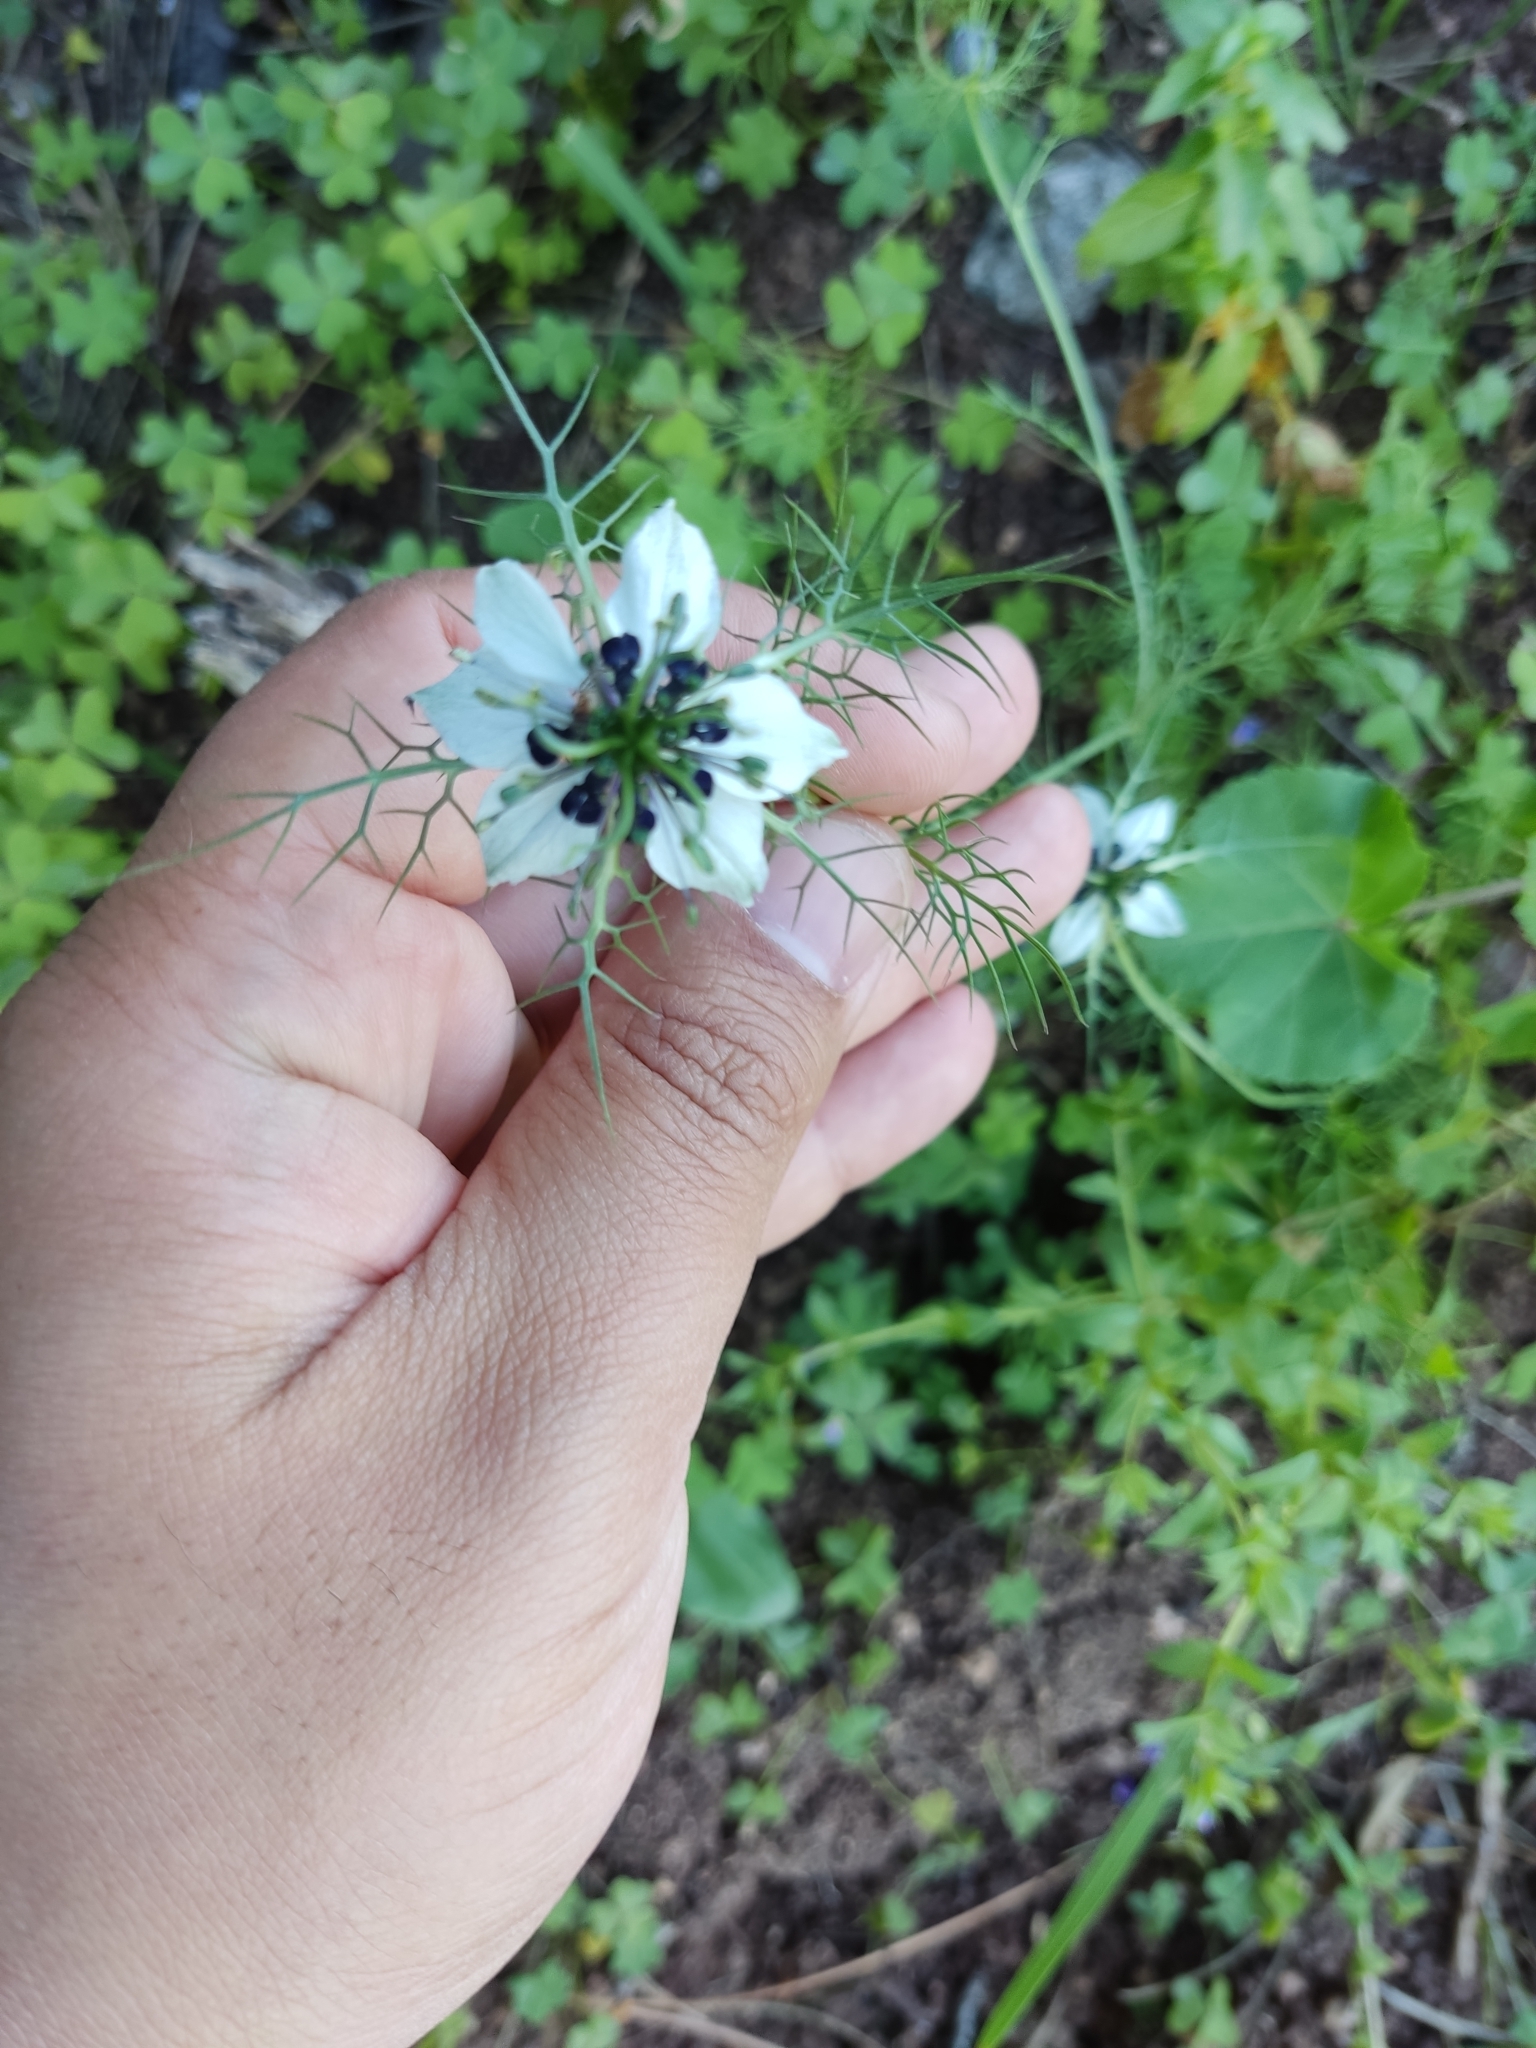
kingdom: Plantae
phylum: Tracheophyta
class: Magnoliopsida
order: Ranunculales
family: Ranunculaceae
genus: Nigella
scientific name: Nigella damascena
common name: Love-in-a-mist
